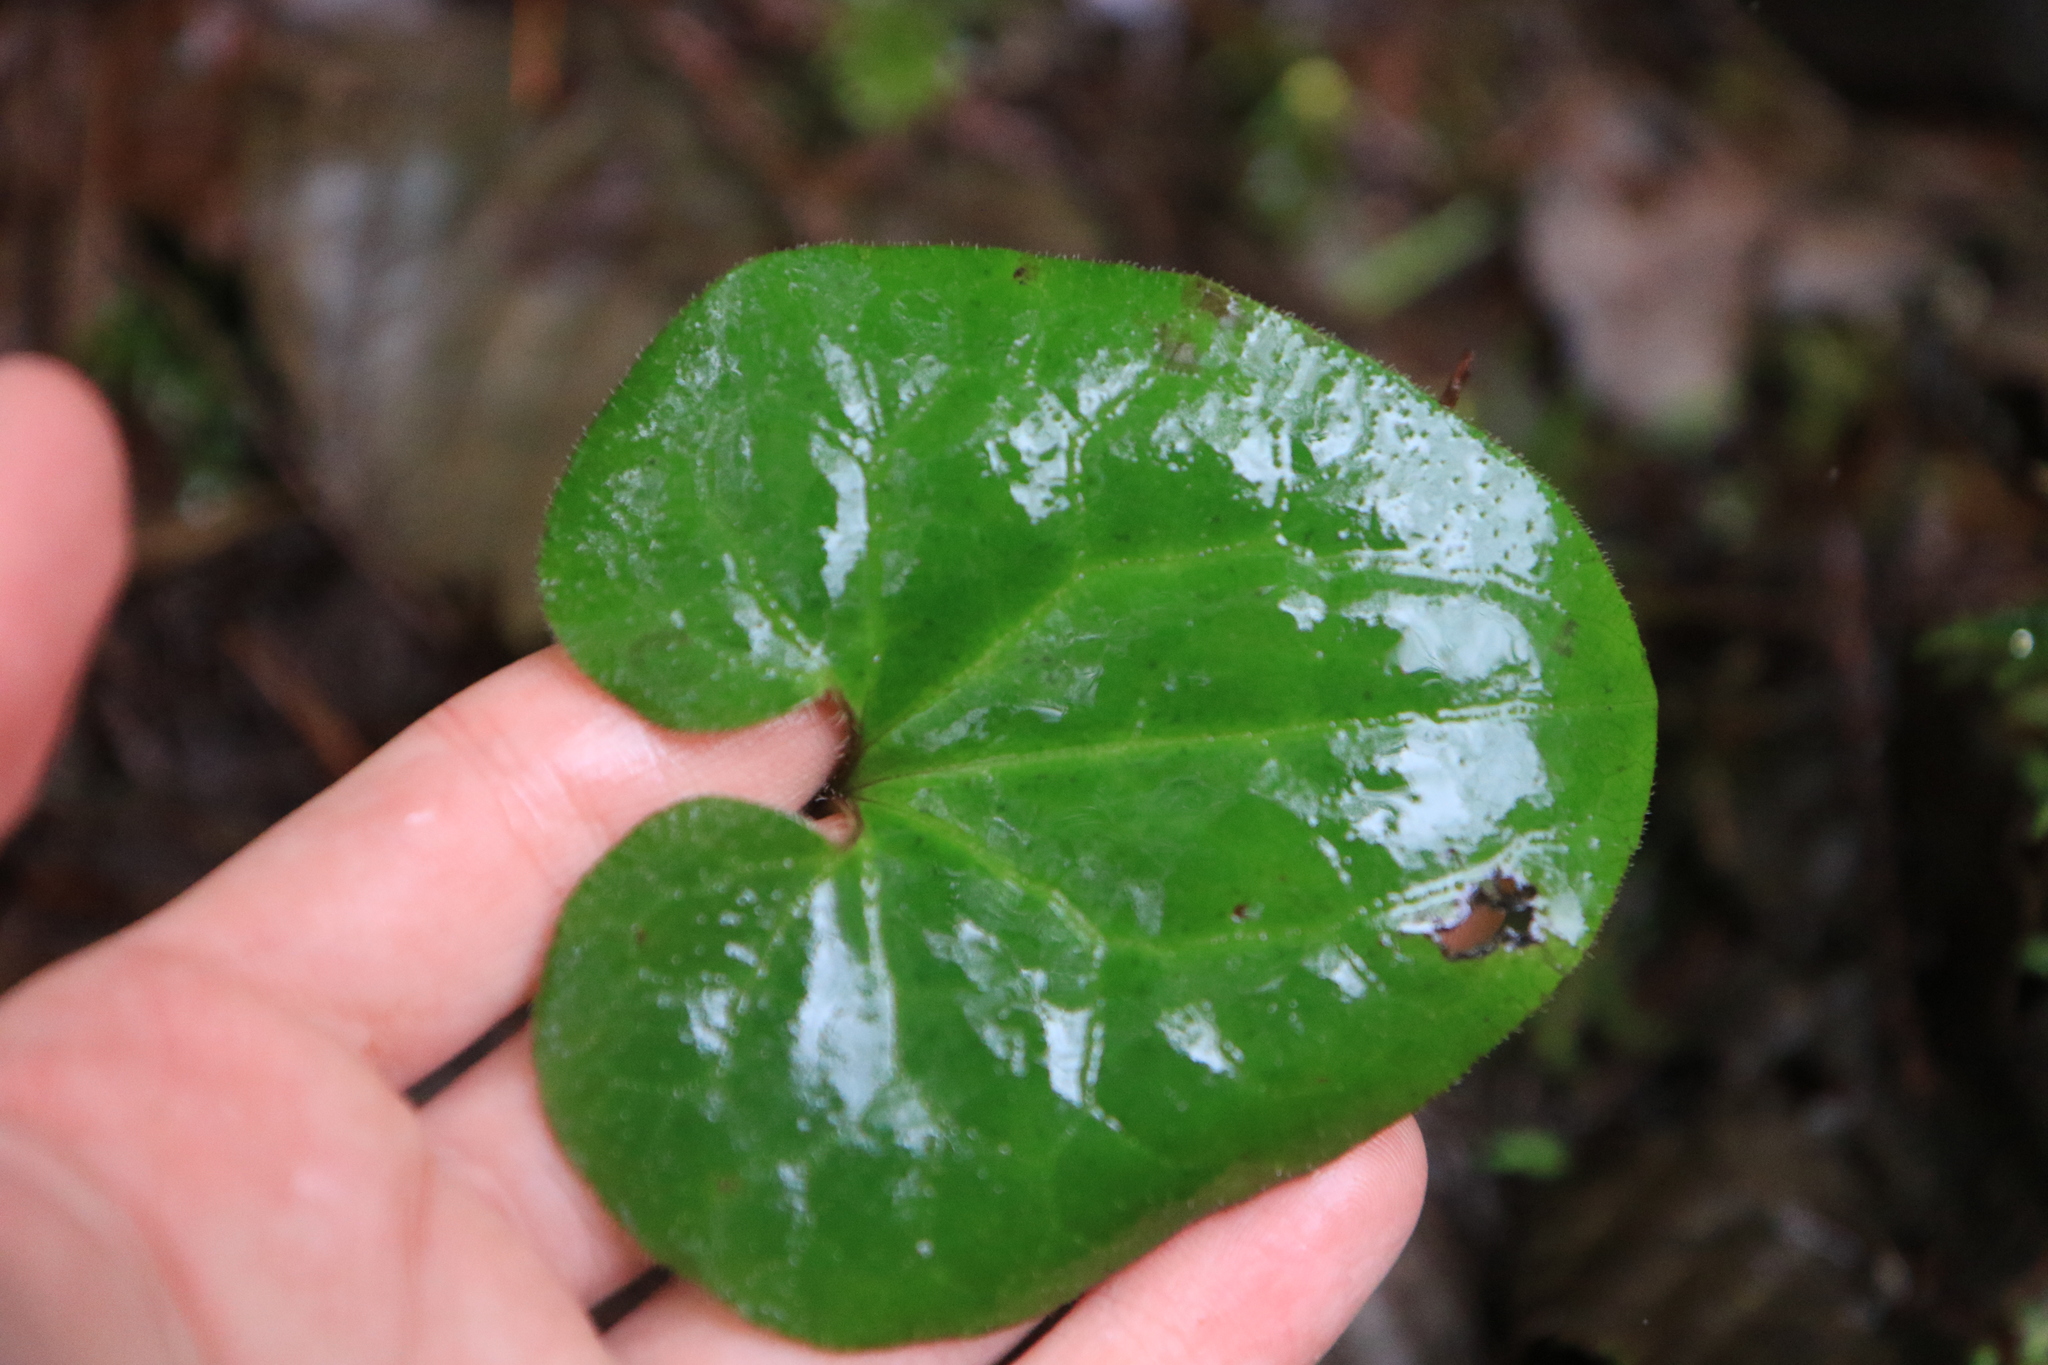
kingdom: Plantae
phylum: Tracheophyta
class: Magnoliopsida
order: Piperales
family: Aristolochiaceae
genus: Asarum
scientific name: Asarum caudatum
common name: Wild ginger
